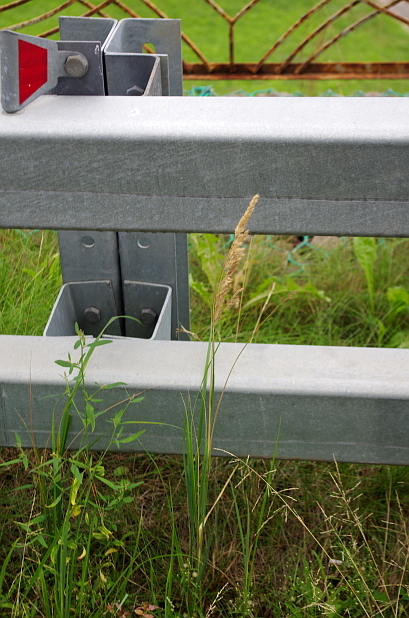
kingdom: Plantae
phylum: Tracheophyta
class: Liliopsida
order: Poales
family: Poaceae
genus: Calamagrostis
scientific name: Calamagrostis epigejos
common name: Wood small-reed
